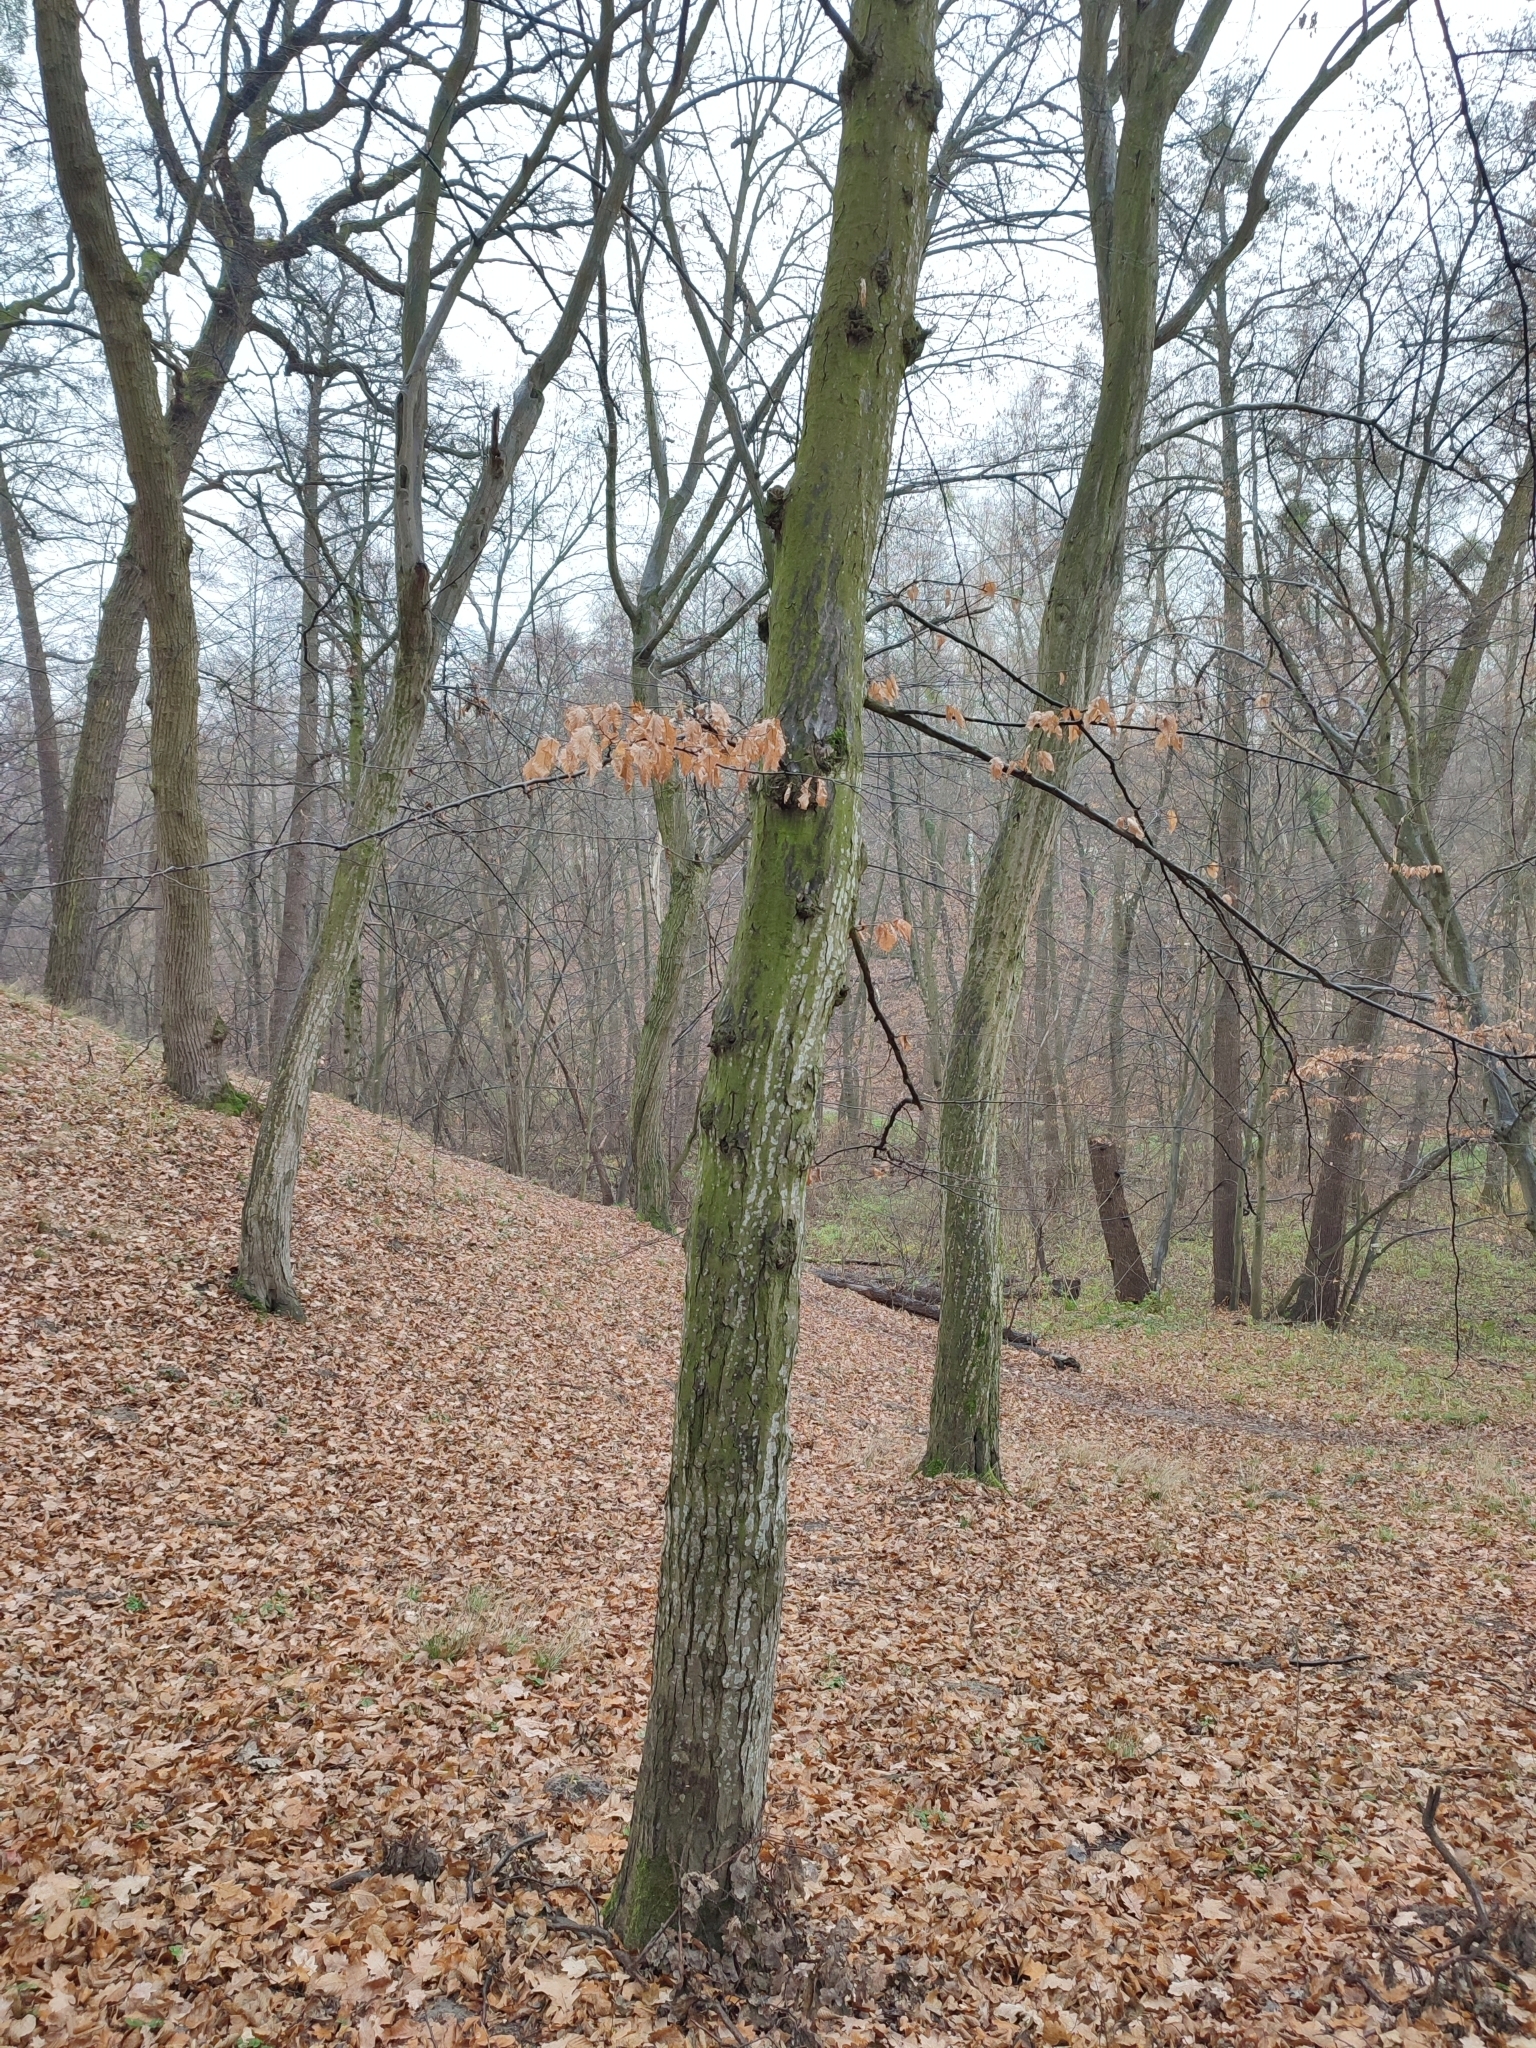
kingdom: Plantae
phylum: Tracheophyta
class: Magnoliopsida
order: Fagales
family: Betulaceae
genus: Carpinus
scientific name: Carpinus betulus
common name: Hornbeam
